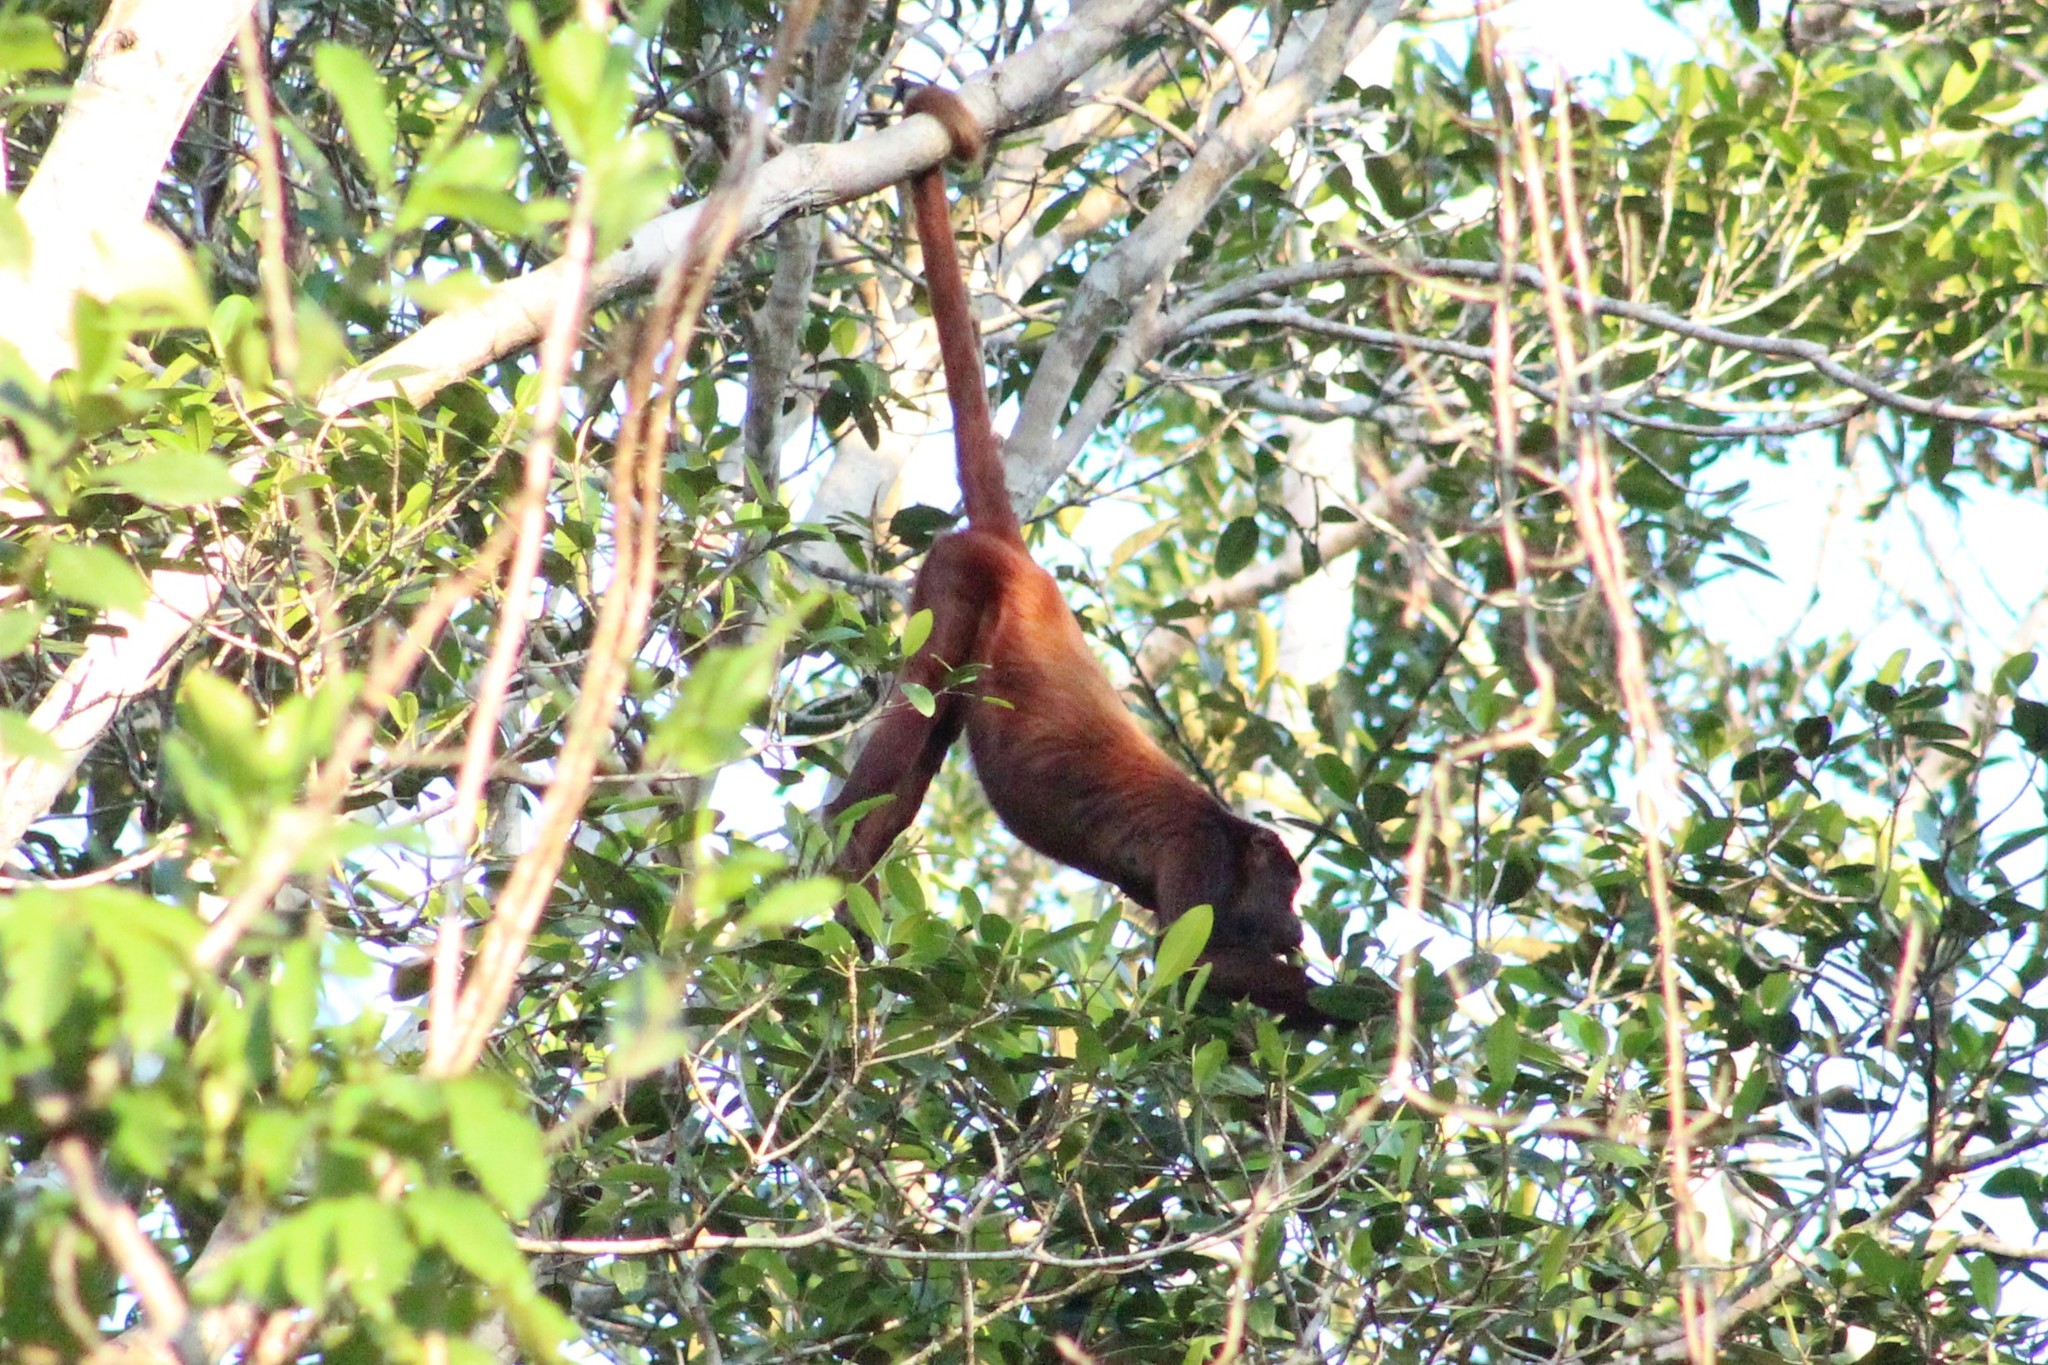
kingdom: Animalia
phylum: Chordata
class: Mammalia
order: Primates
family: Atelidae
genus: Alouatta
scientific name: Alouatta seniculus
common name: Venezuelan red howler
